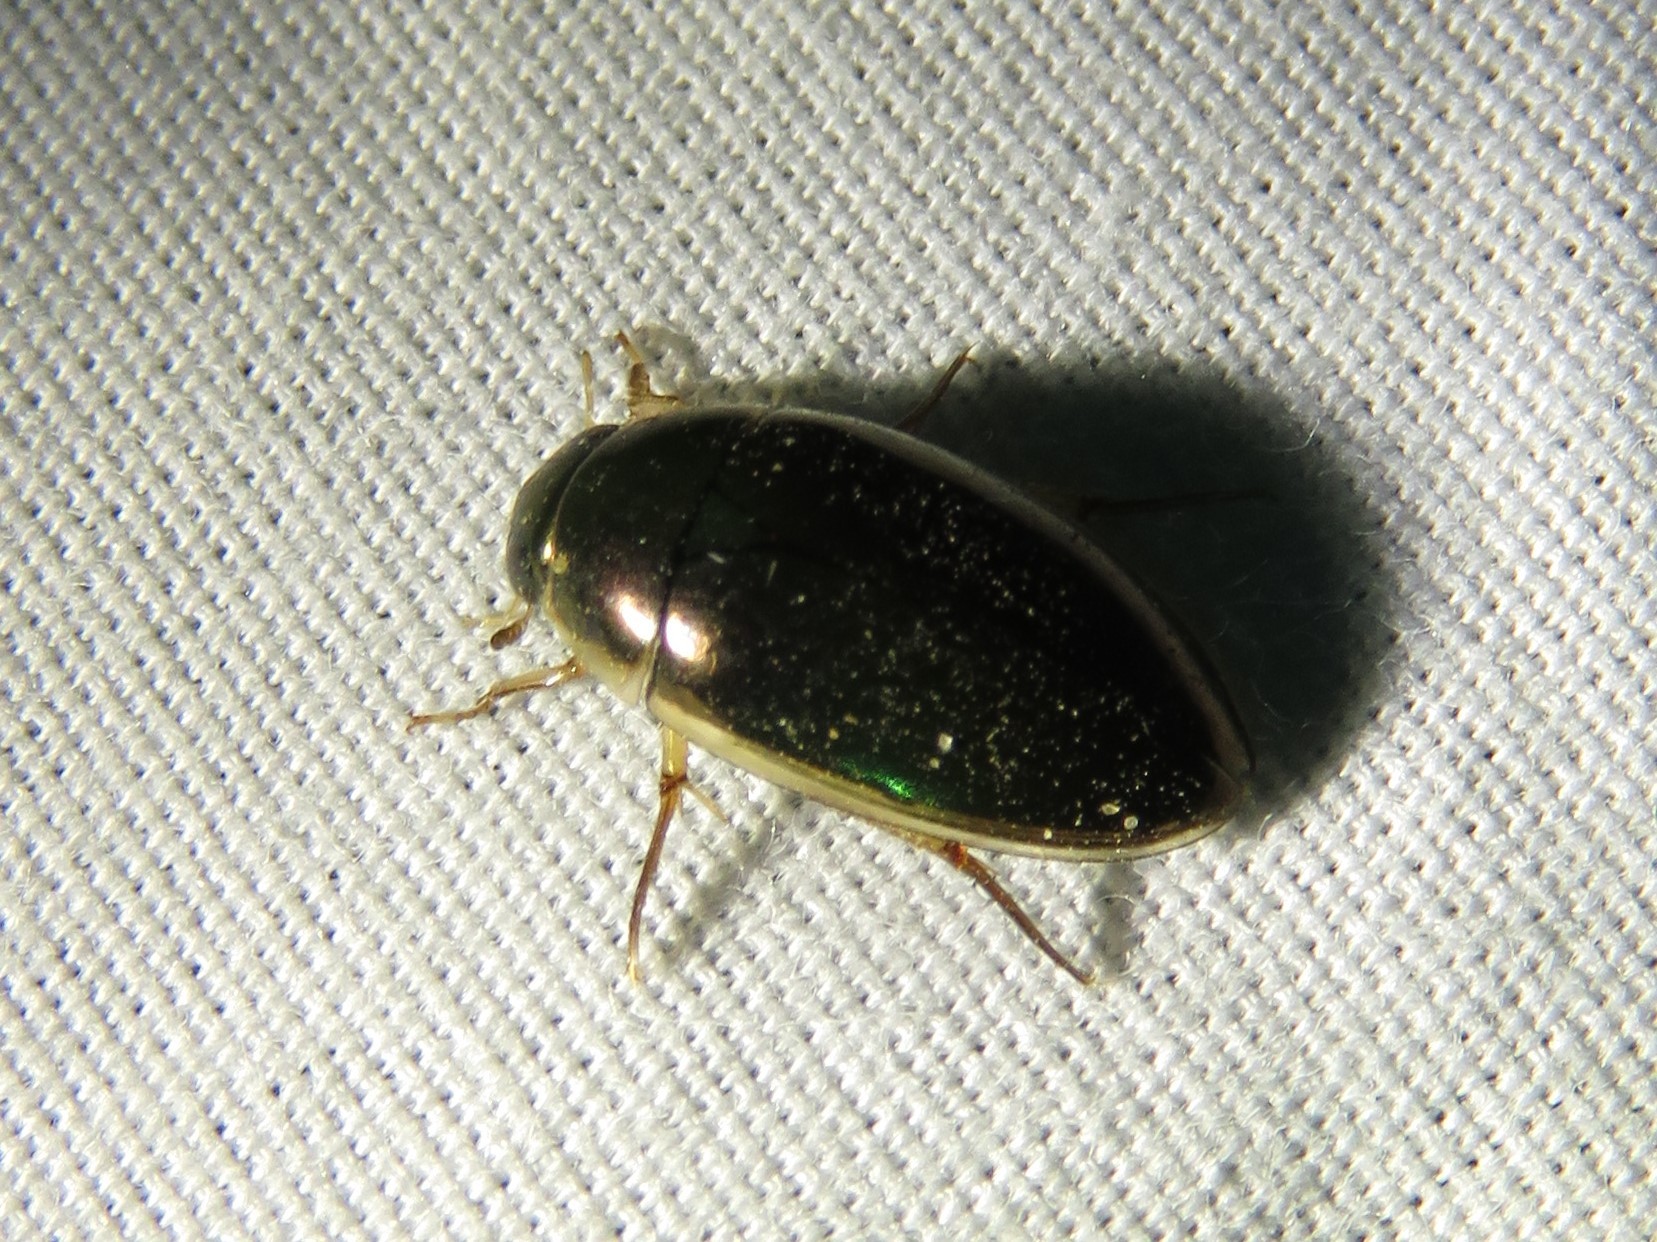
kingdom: Animalia
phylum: Arthropoda
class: Insecta
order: Coleoptera
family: Hydrophilidae
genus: Tropisternus
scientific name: Tropisternus lateralis
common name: Lateral-banded water scavenger beetle
